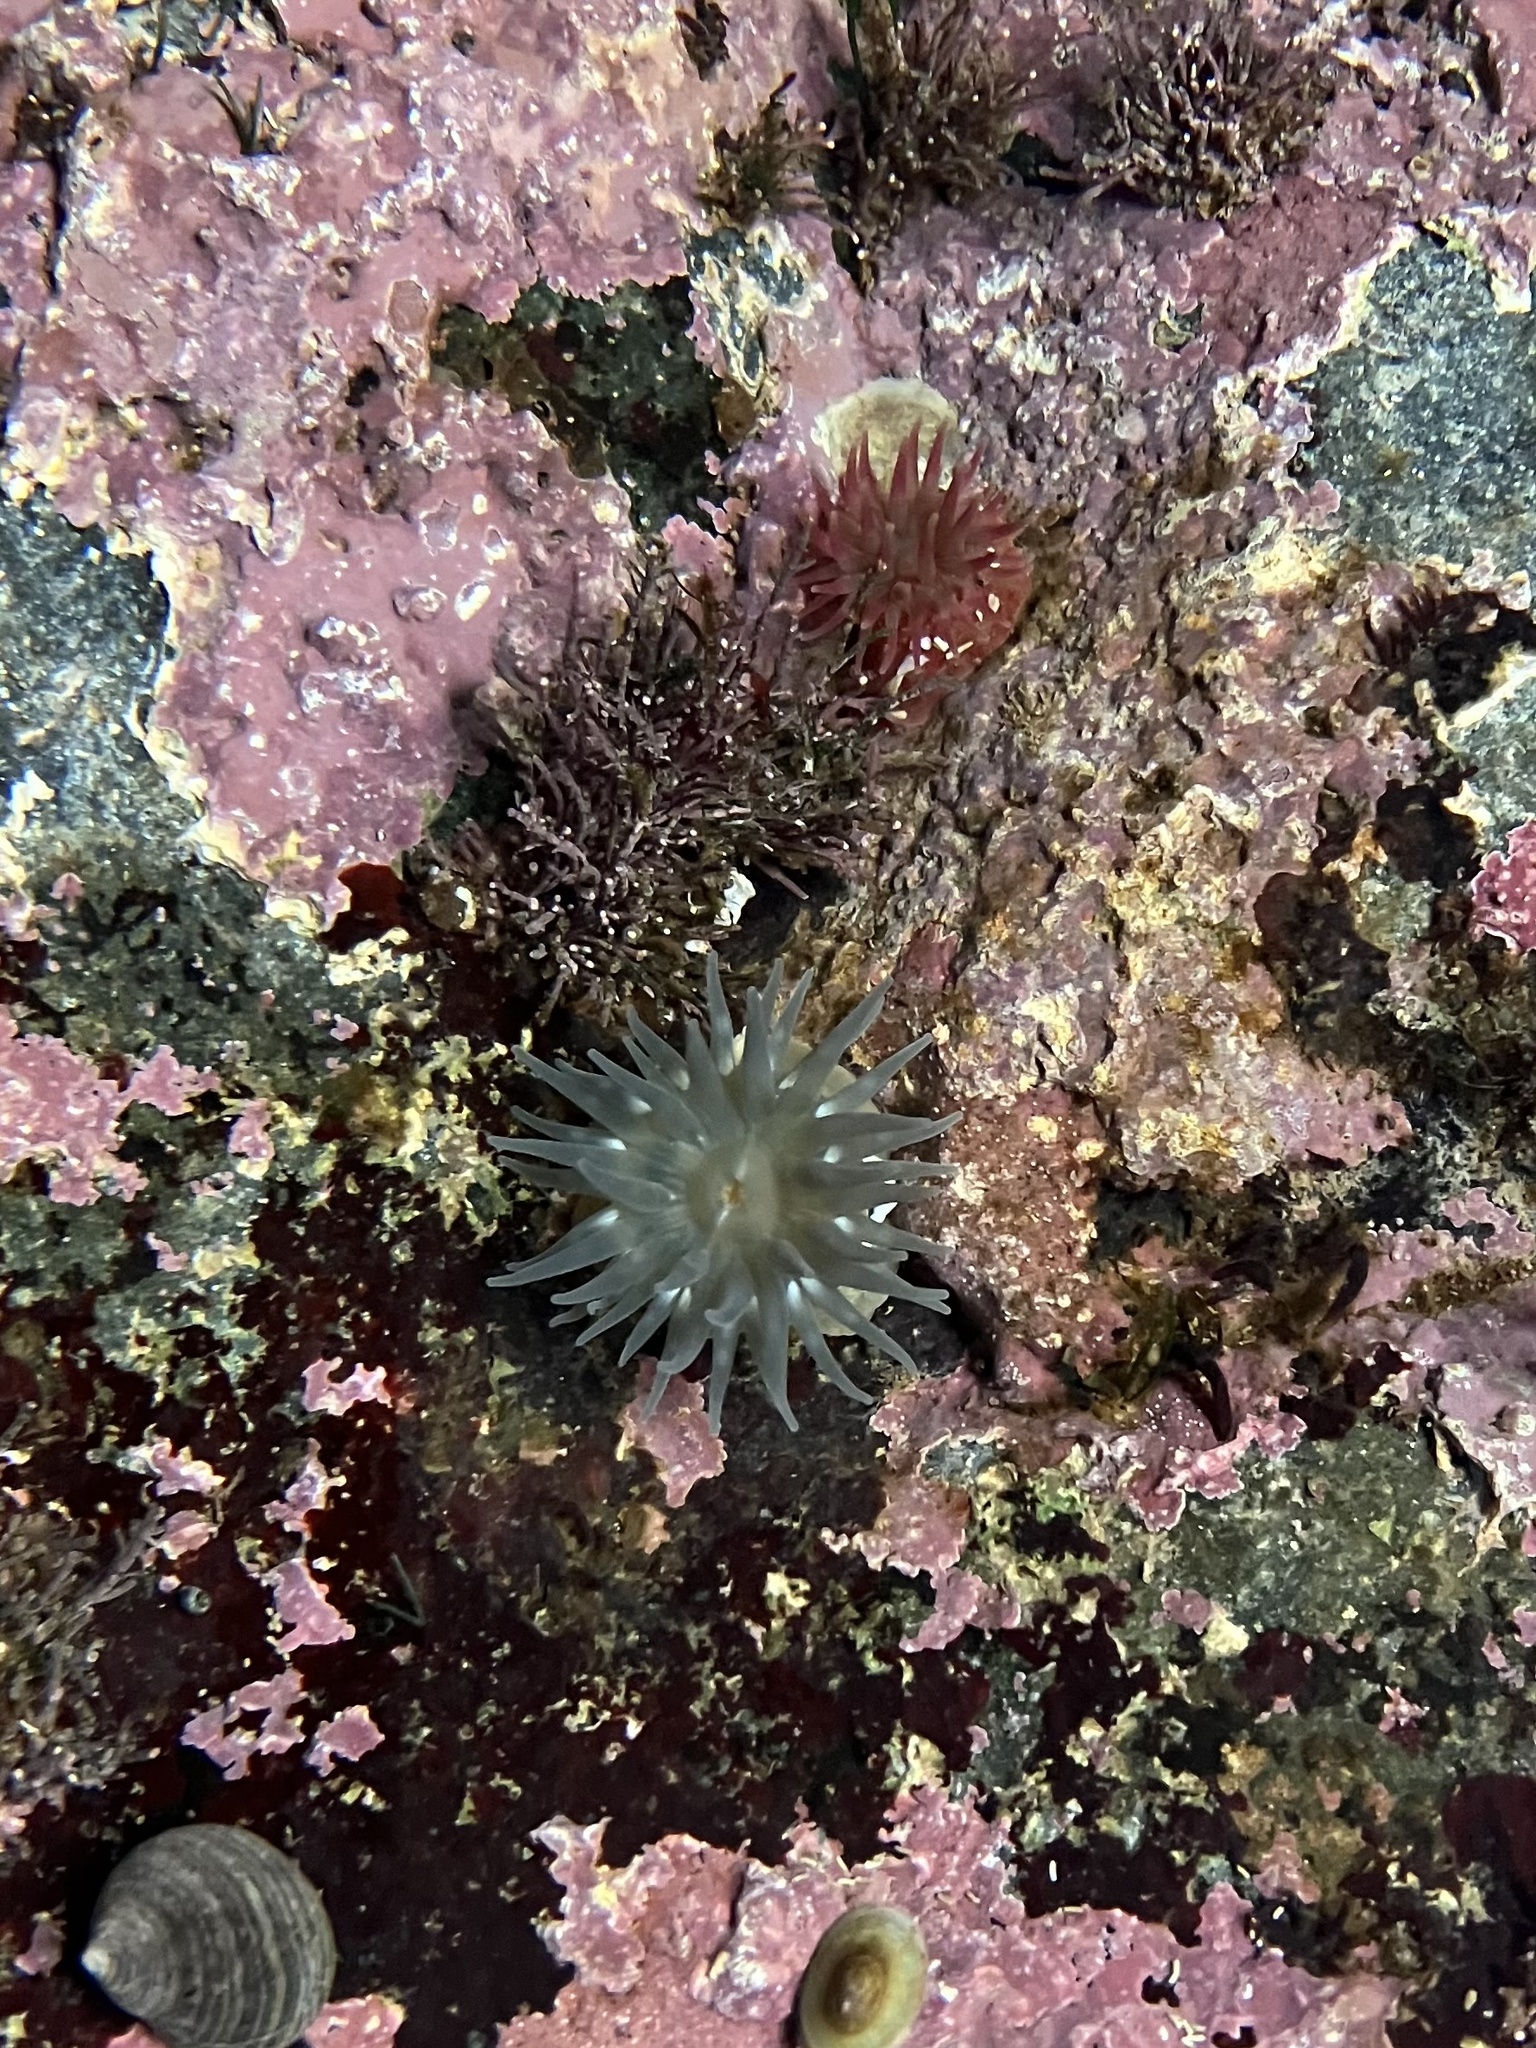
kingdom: Animalia
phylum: Cnidaria
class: Anthozoa
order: Actiniaria
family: Actiniidae
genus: Aulactinia
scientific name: Aulactinia stella
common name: Silver-spotted sea anemone
